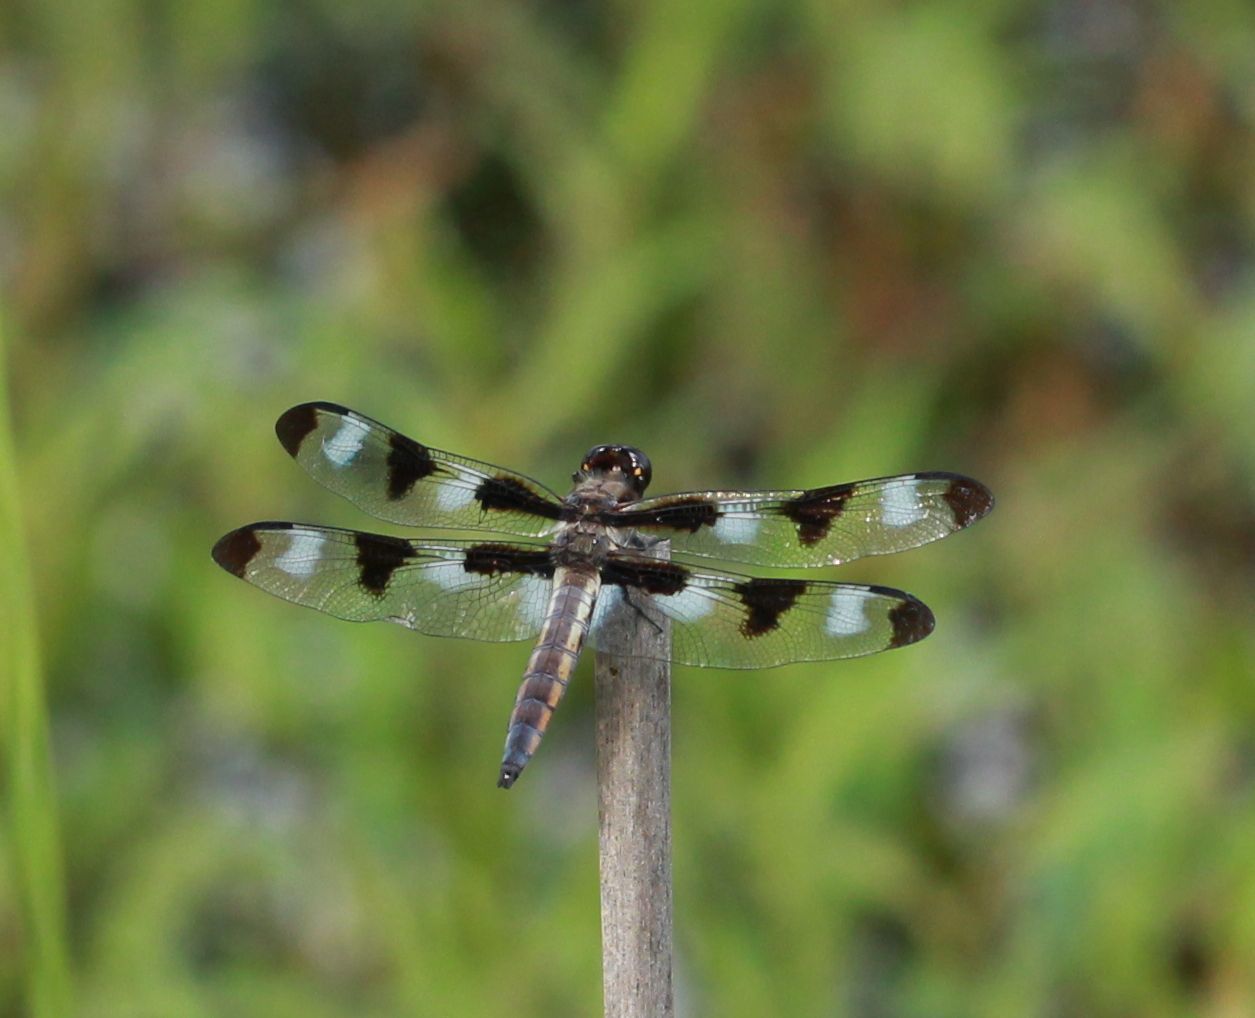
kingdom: Animalia
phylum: Arthropoda
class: Insecta
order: Odonata
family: Libellulidae
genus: Libellula
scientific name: Libellula pulchella
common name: Twelve-spotted skimmer
